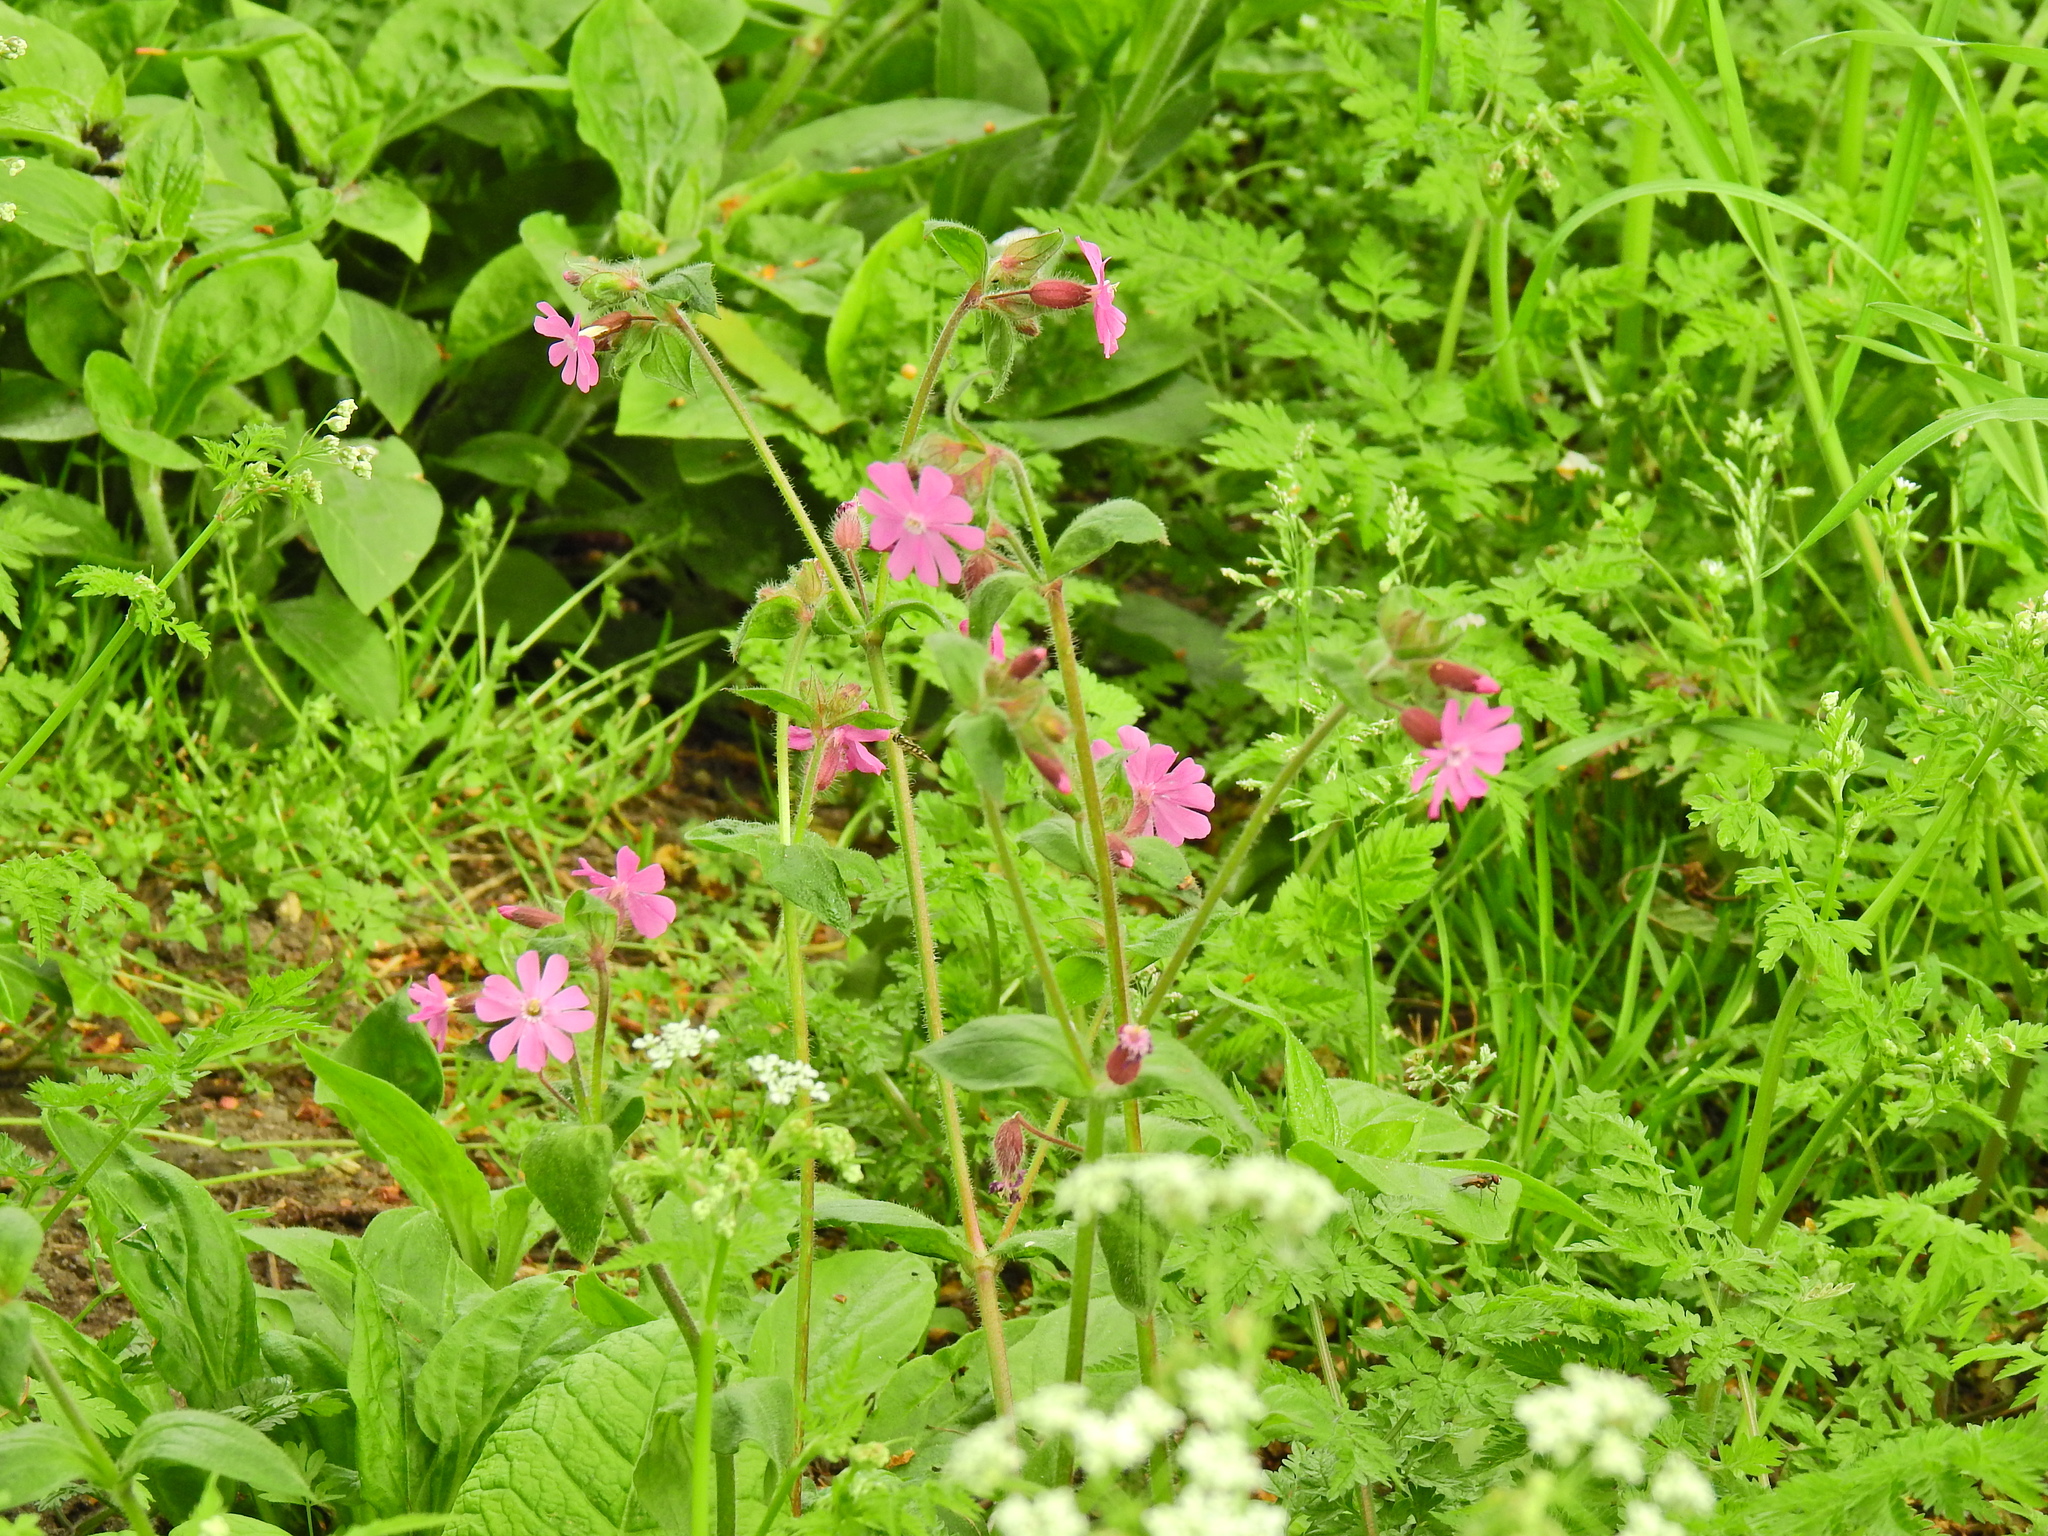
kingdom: Plantae
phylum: Tracheophyta
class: Magnoliopsida
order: Caryophyllales
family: Caryophyllaceae
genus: Silene
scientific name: Silene dioica
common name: Red campion
